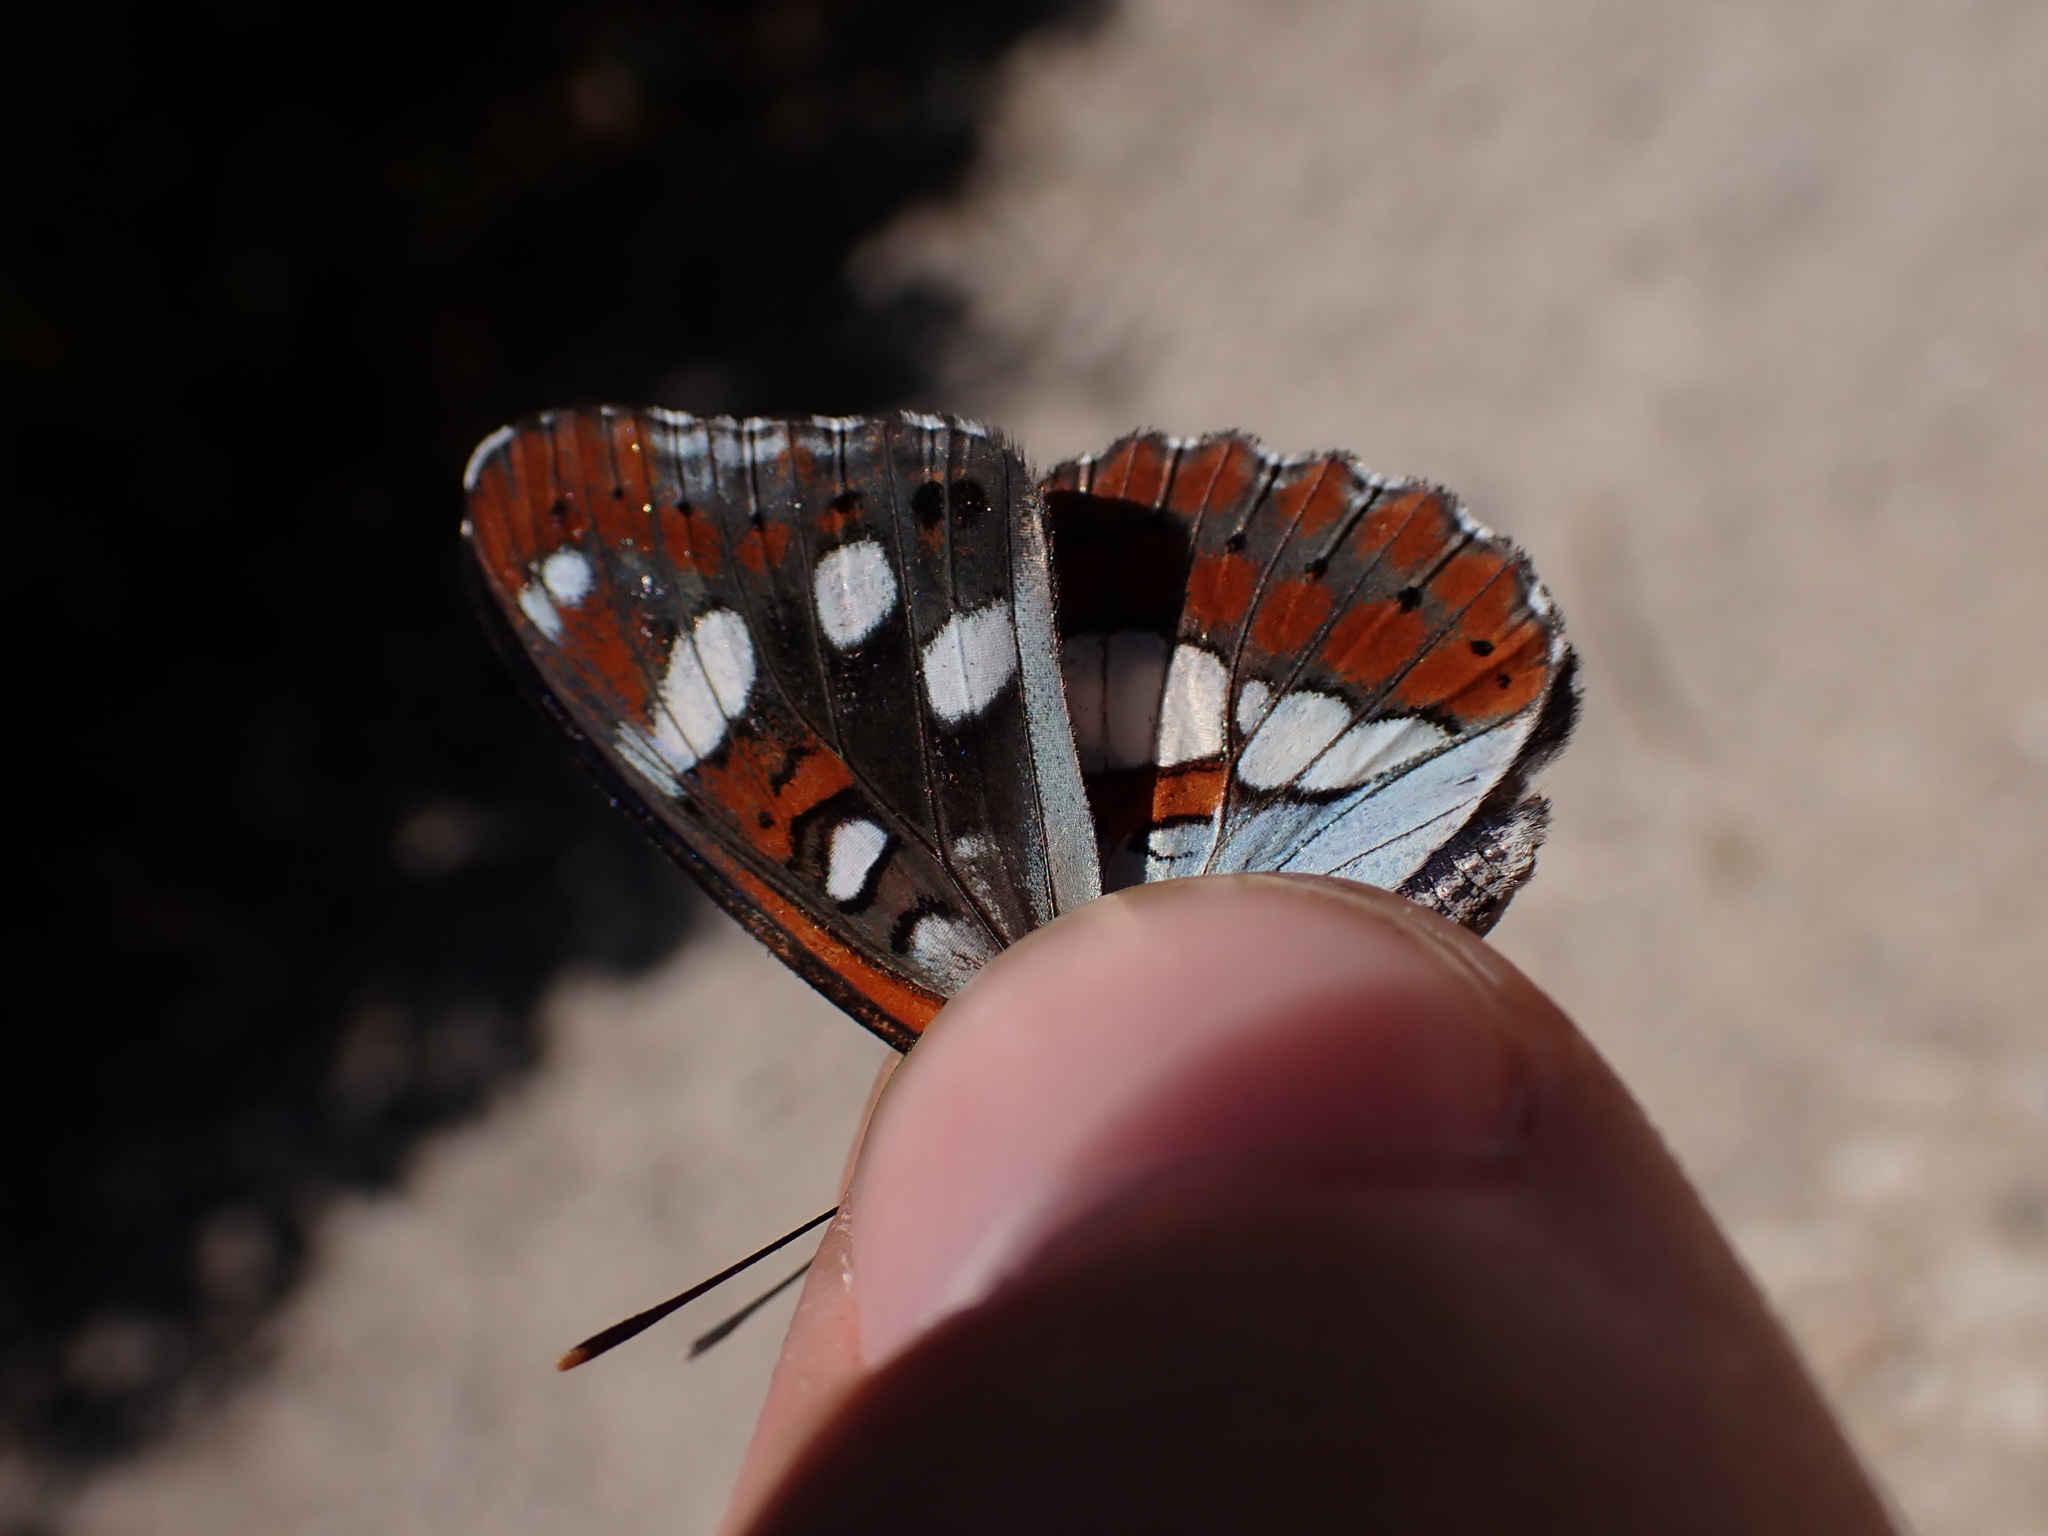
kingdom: Animalia
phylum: Arthropoda
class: Insecta
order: Lepidoptera
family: Nymphalidae
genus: Limenitis
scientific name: Limenitis reducta
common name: Southern white admiral
